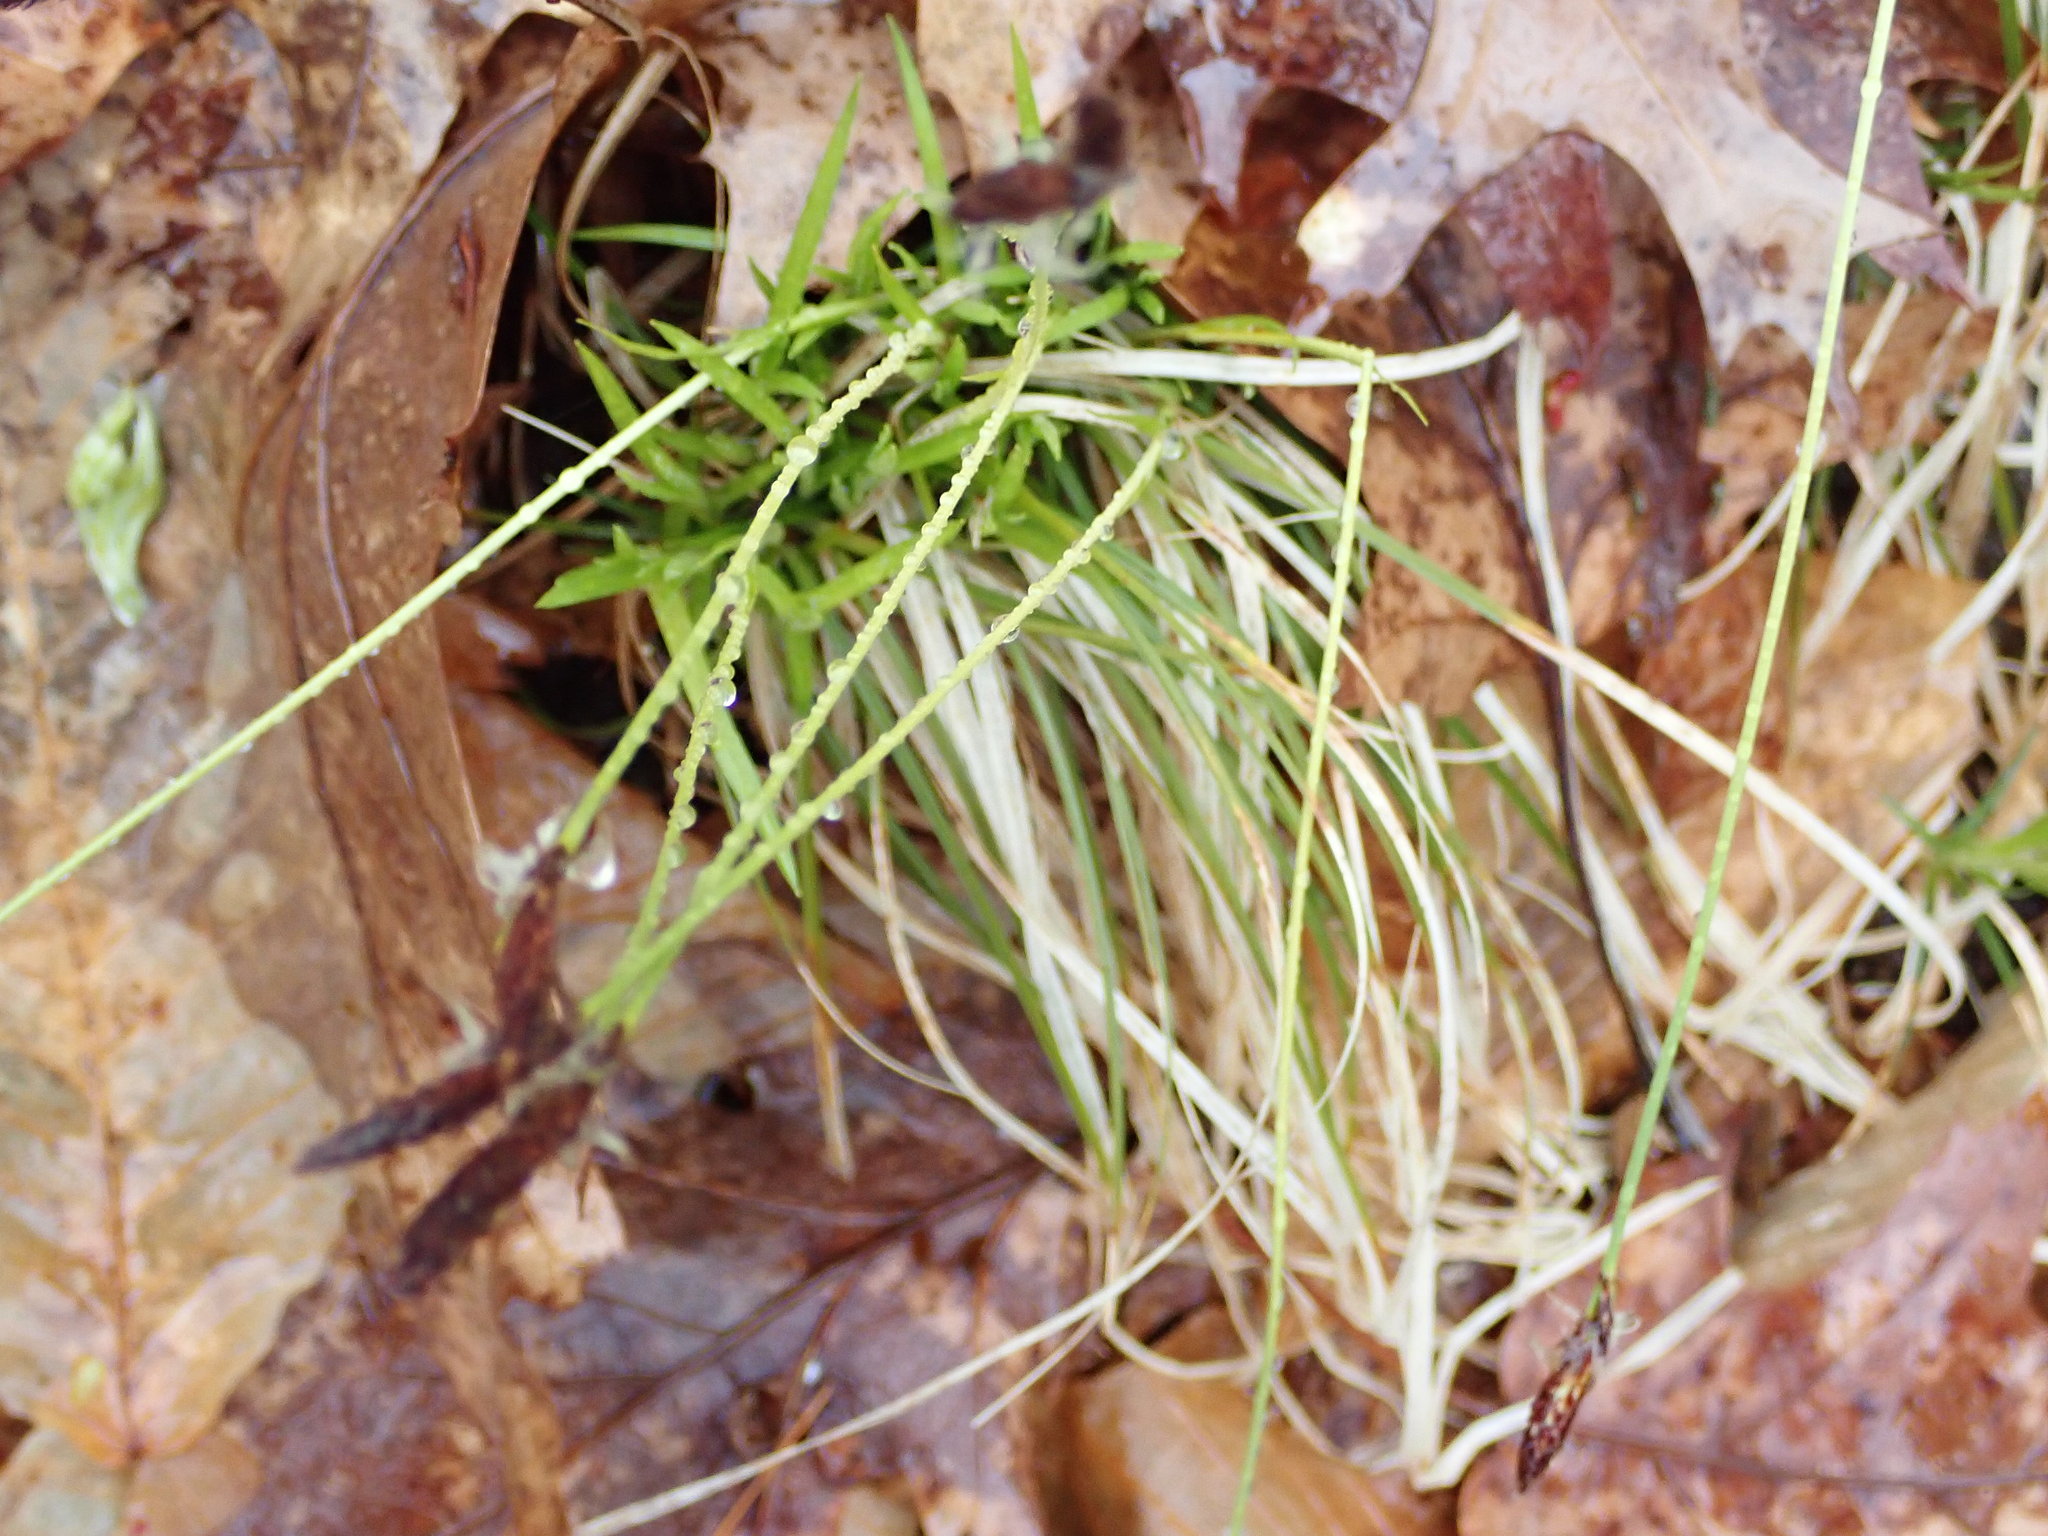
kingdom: Plantae
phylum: Tracheophyta
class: Liliopsida
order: Poales
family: Cyperaceae
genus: Carex
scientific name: Carex pensylvanica
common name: Common oak sedge
